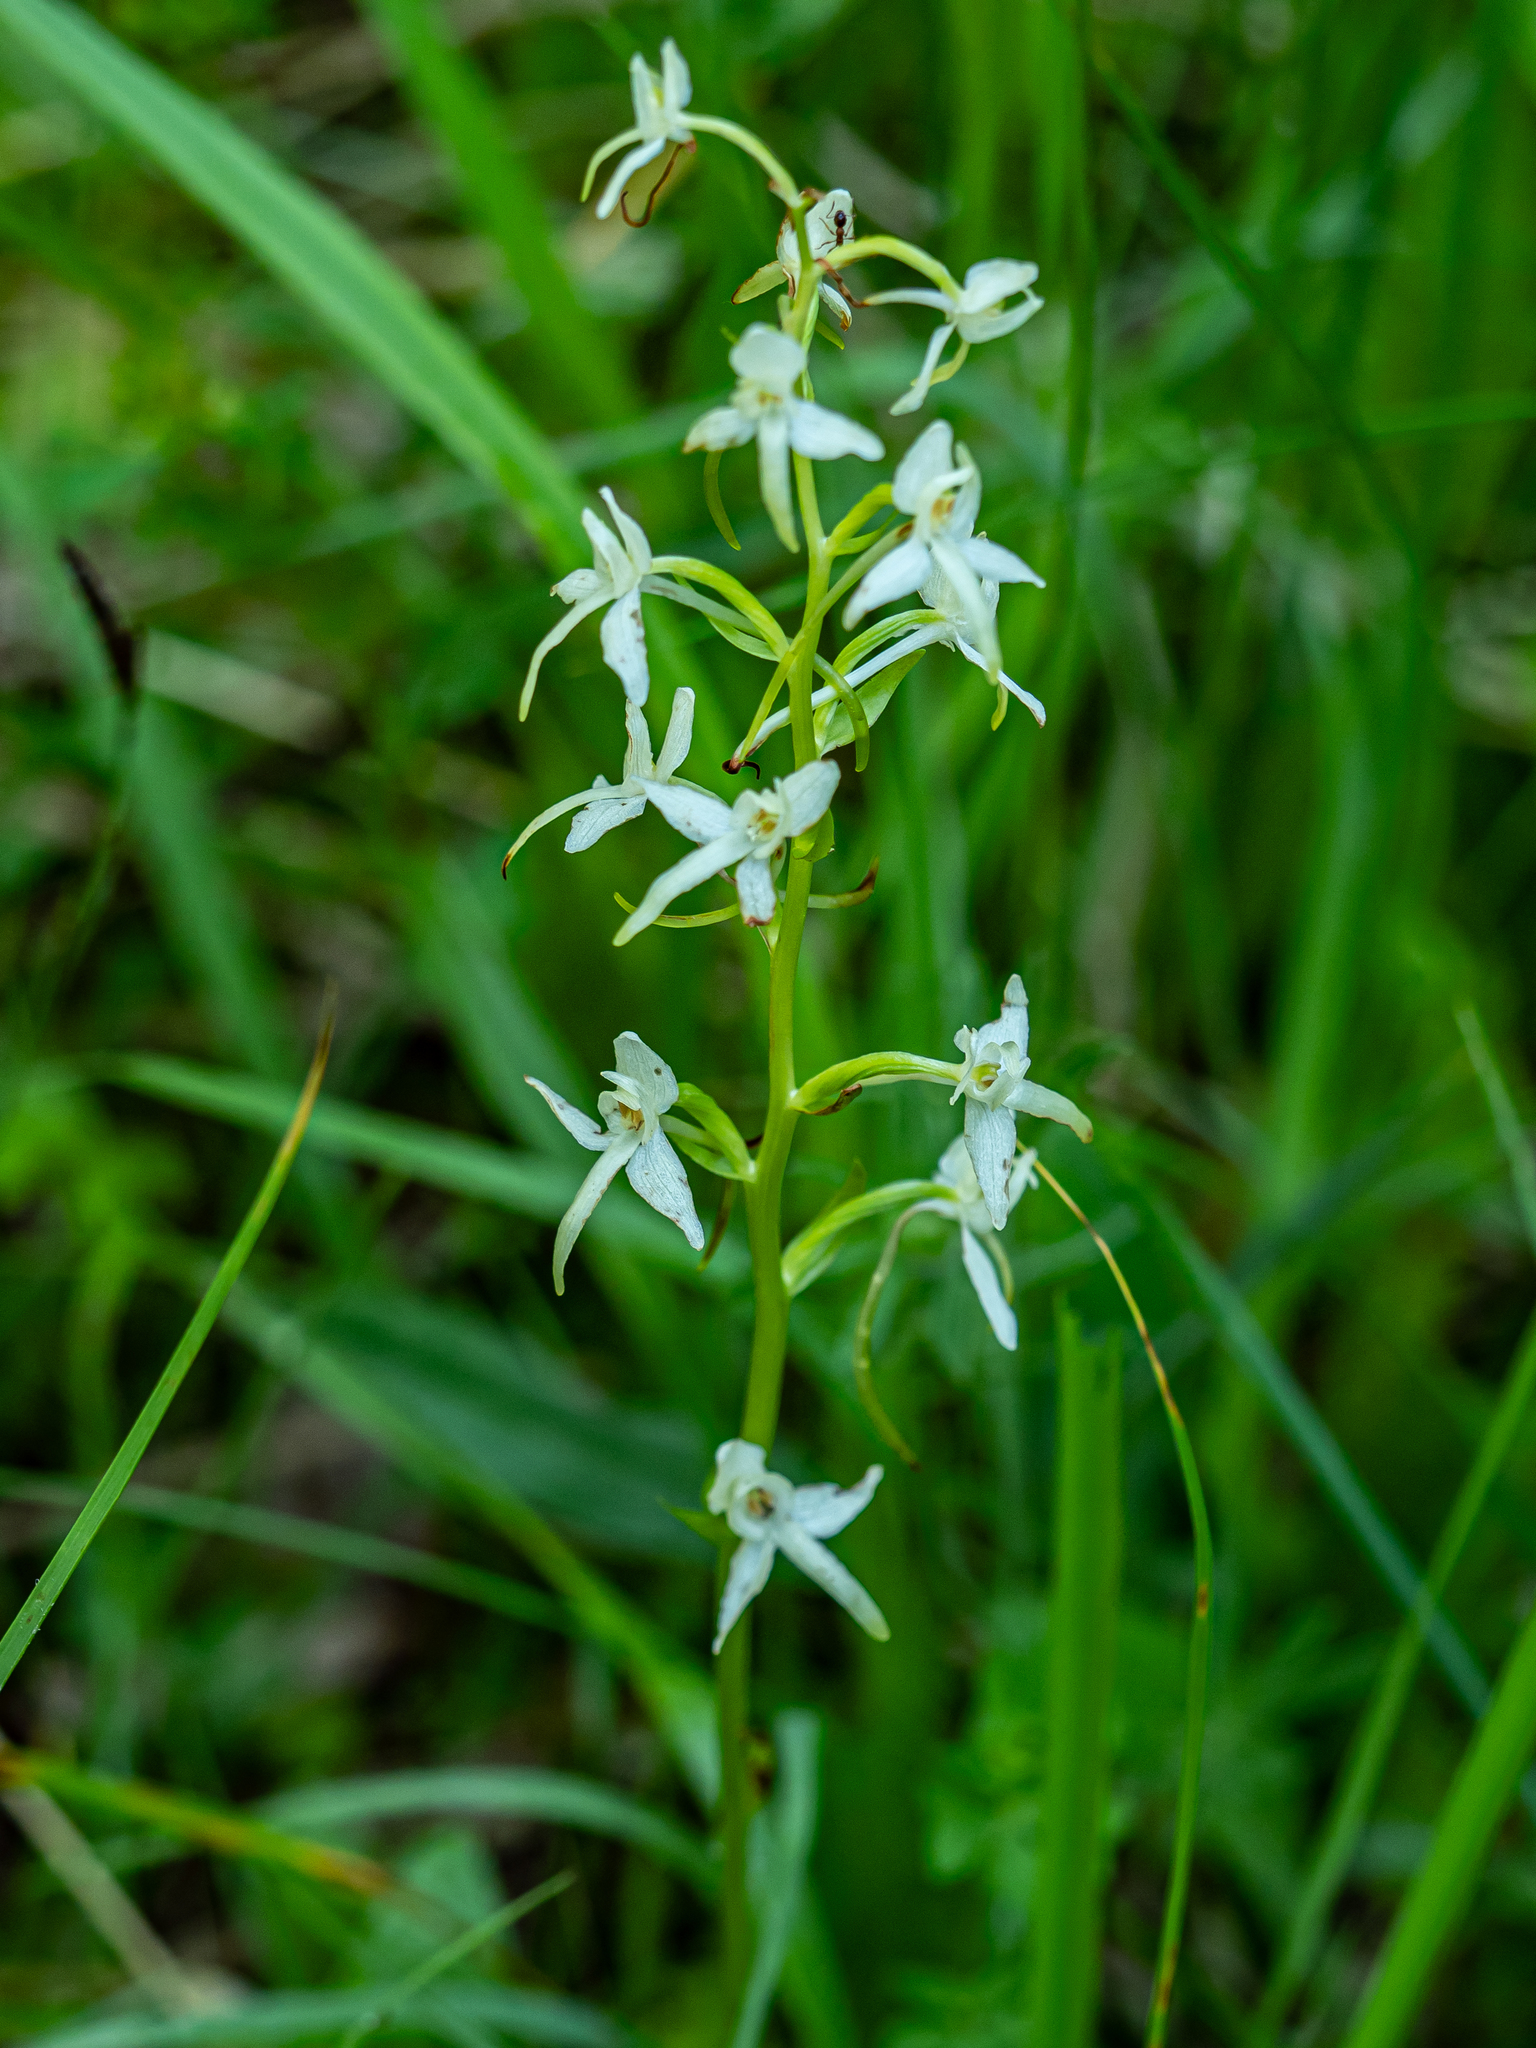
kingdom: Plantae
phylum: Tracheophyta
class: Liliopsida
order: Asparagales
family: Orchidaceae
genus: Platanthera
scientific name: Platanthera bifolia
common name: Lesser butterfly-orchid
